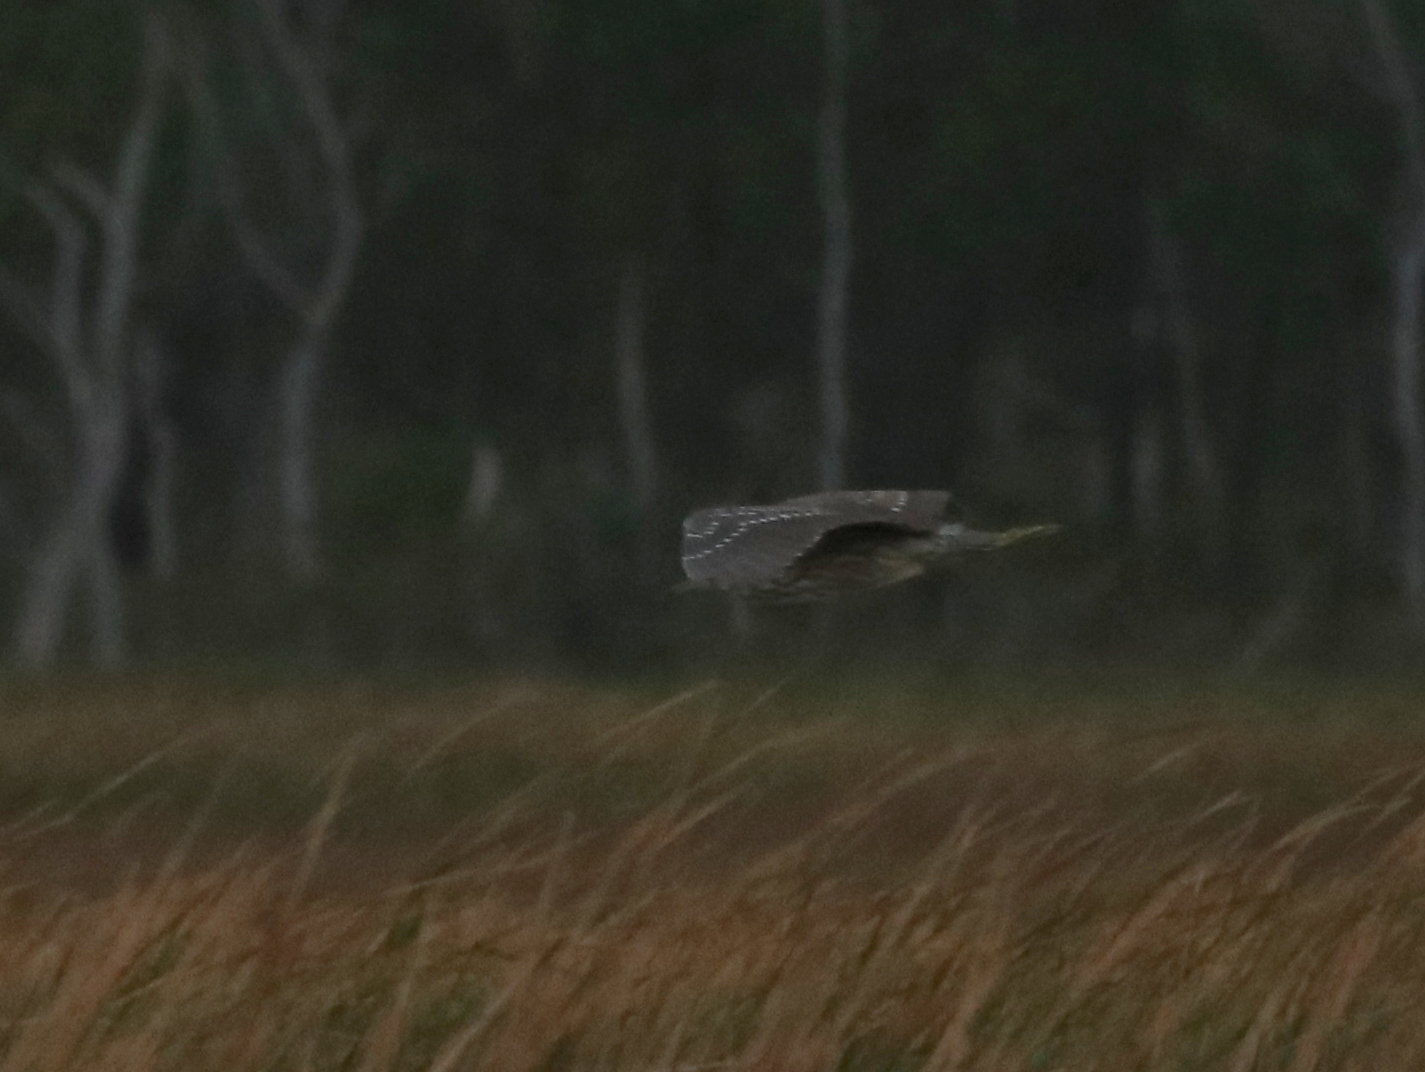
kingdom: Animalia
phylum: Chordata
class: Aves
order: Pelecaniformes
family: Ardeidae
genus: Nycticorax
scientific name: Nycticorax nycticorax
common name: Black-crowned night heron
